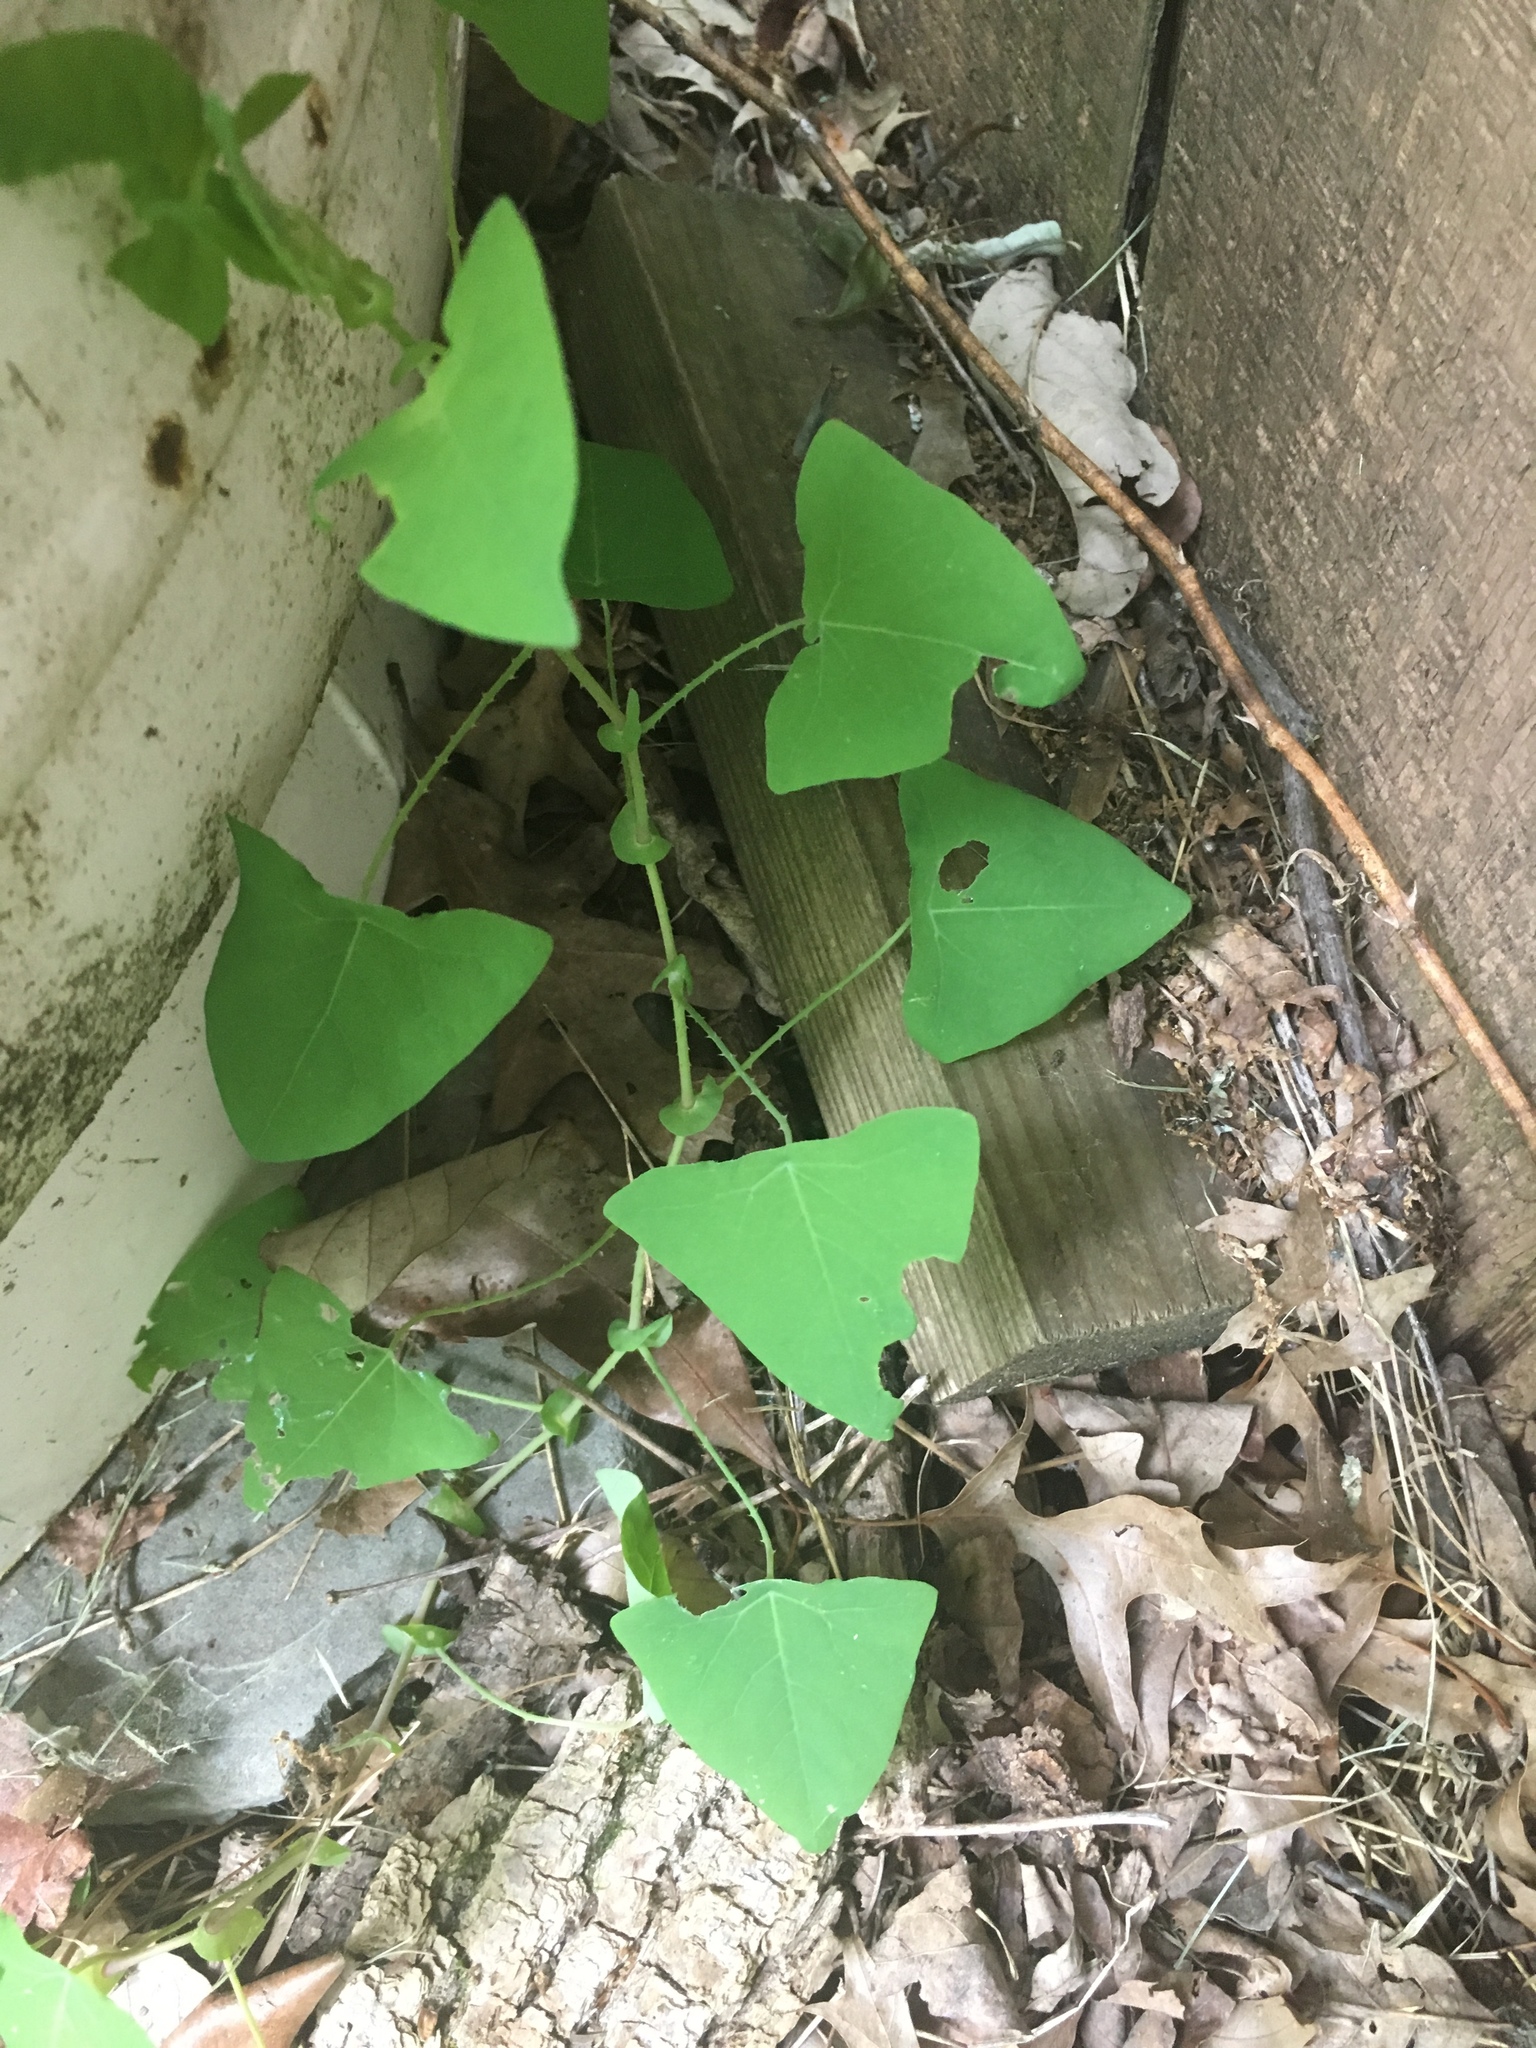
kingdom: Plantae
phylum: Tracheophyta
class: Magnoliopsida
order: Caryophyllales
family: Polygonaceae
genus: Persicaria
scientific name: Persicaria perfoliata
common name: Asiatic tearthumb
